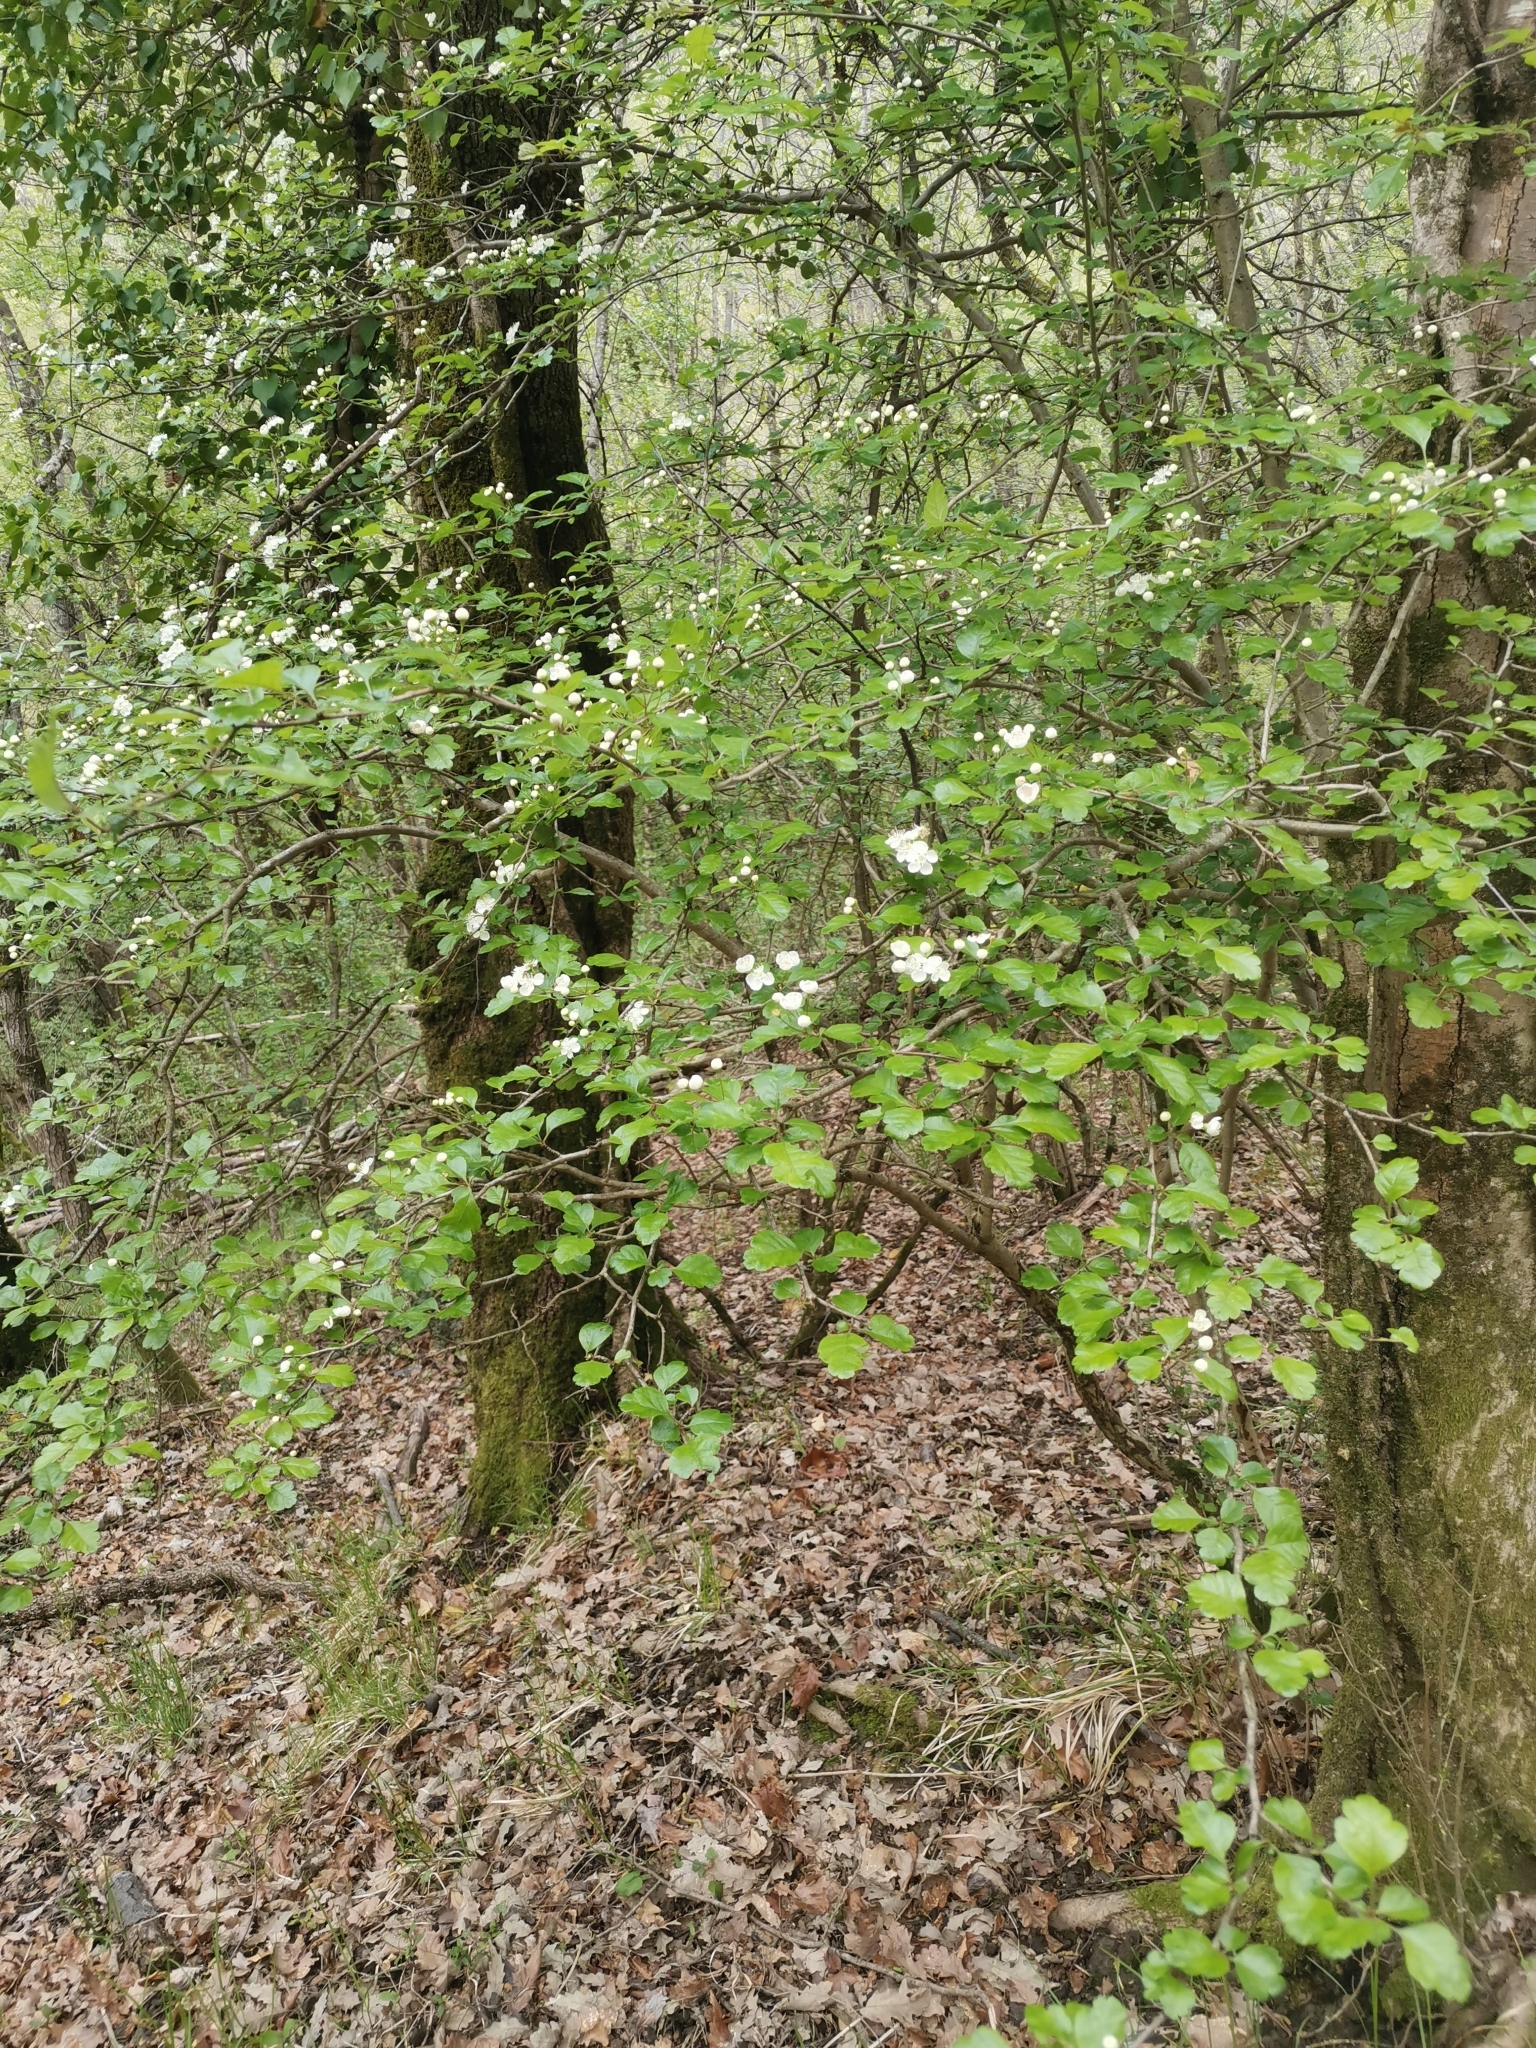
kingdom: Plantae
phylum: Tracheophyta
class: Magnoliopsida
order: Rosales
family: Rosaceae
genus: Crataegus
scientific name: Crataegus laevigata
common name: Midland hawthorn
